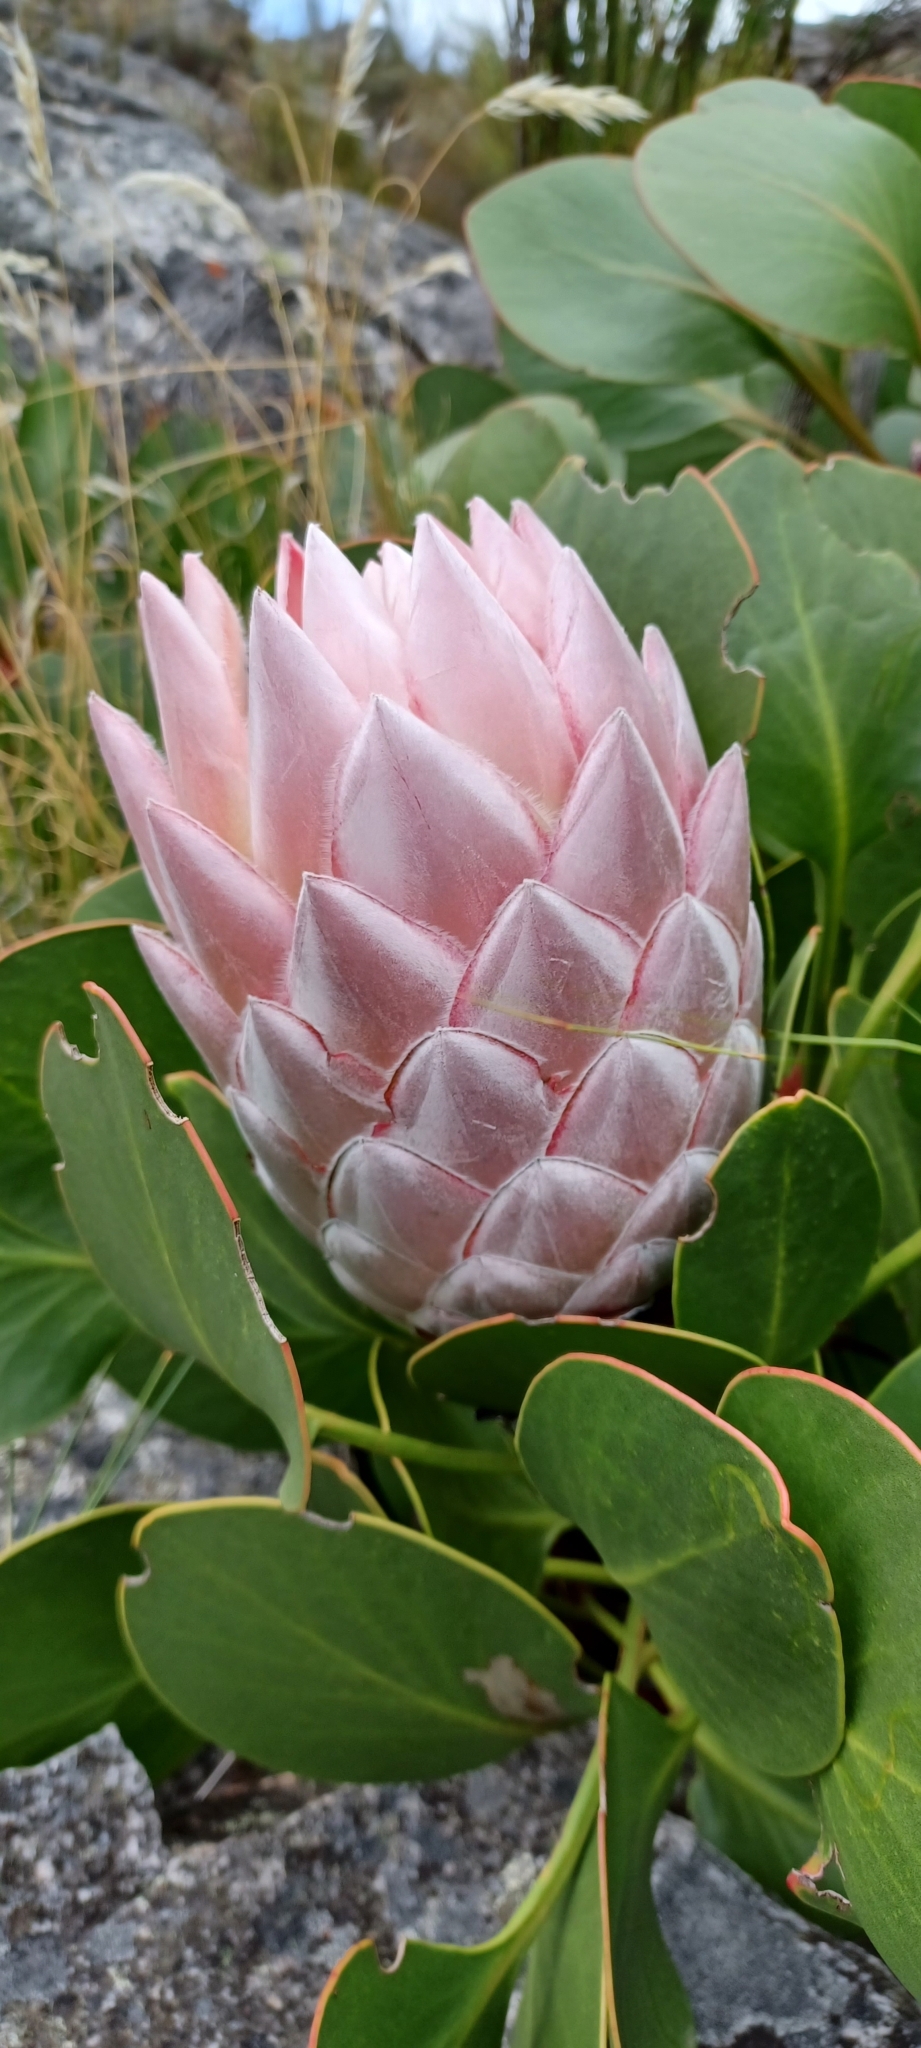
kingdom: Plantae
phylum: Tracheophyta
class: Magnoliopsida
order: Proteales
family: Proteaceae
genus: Protea
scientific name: Protea cynaroides
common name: King protea
